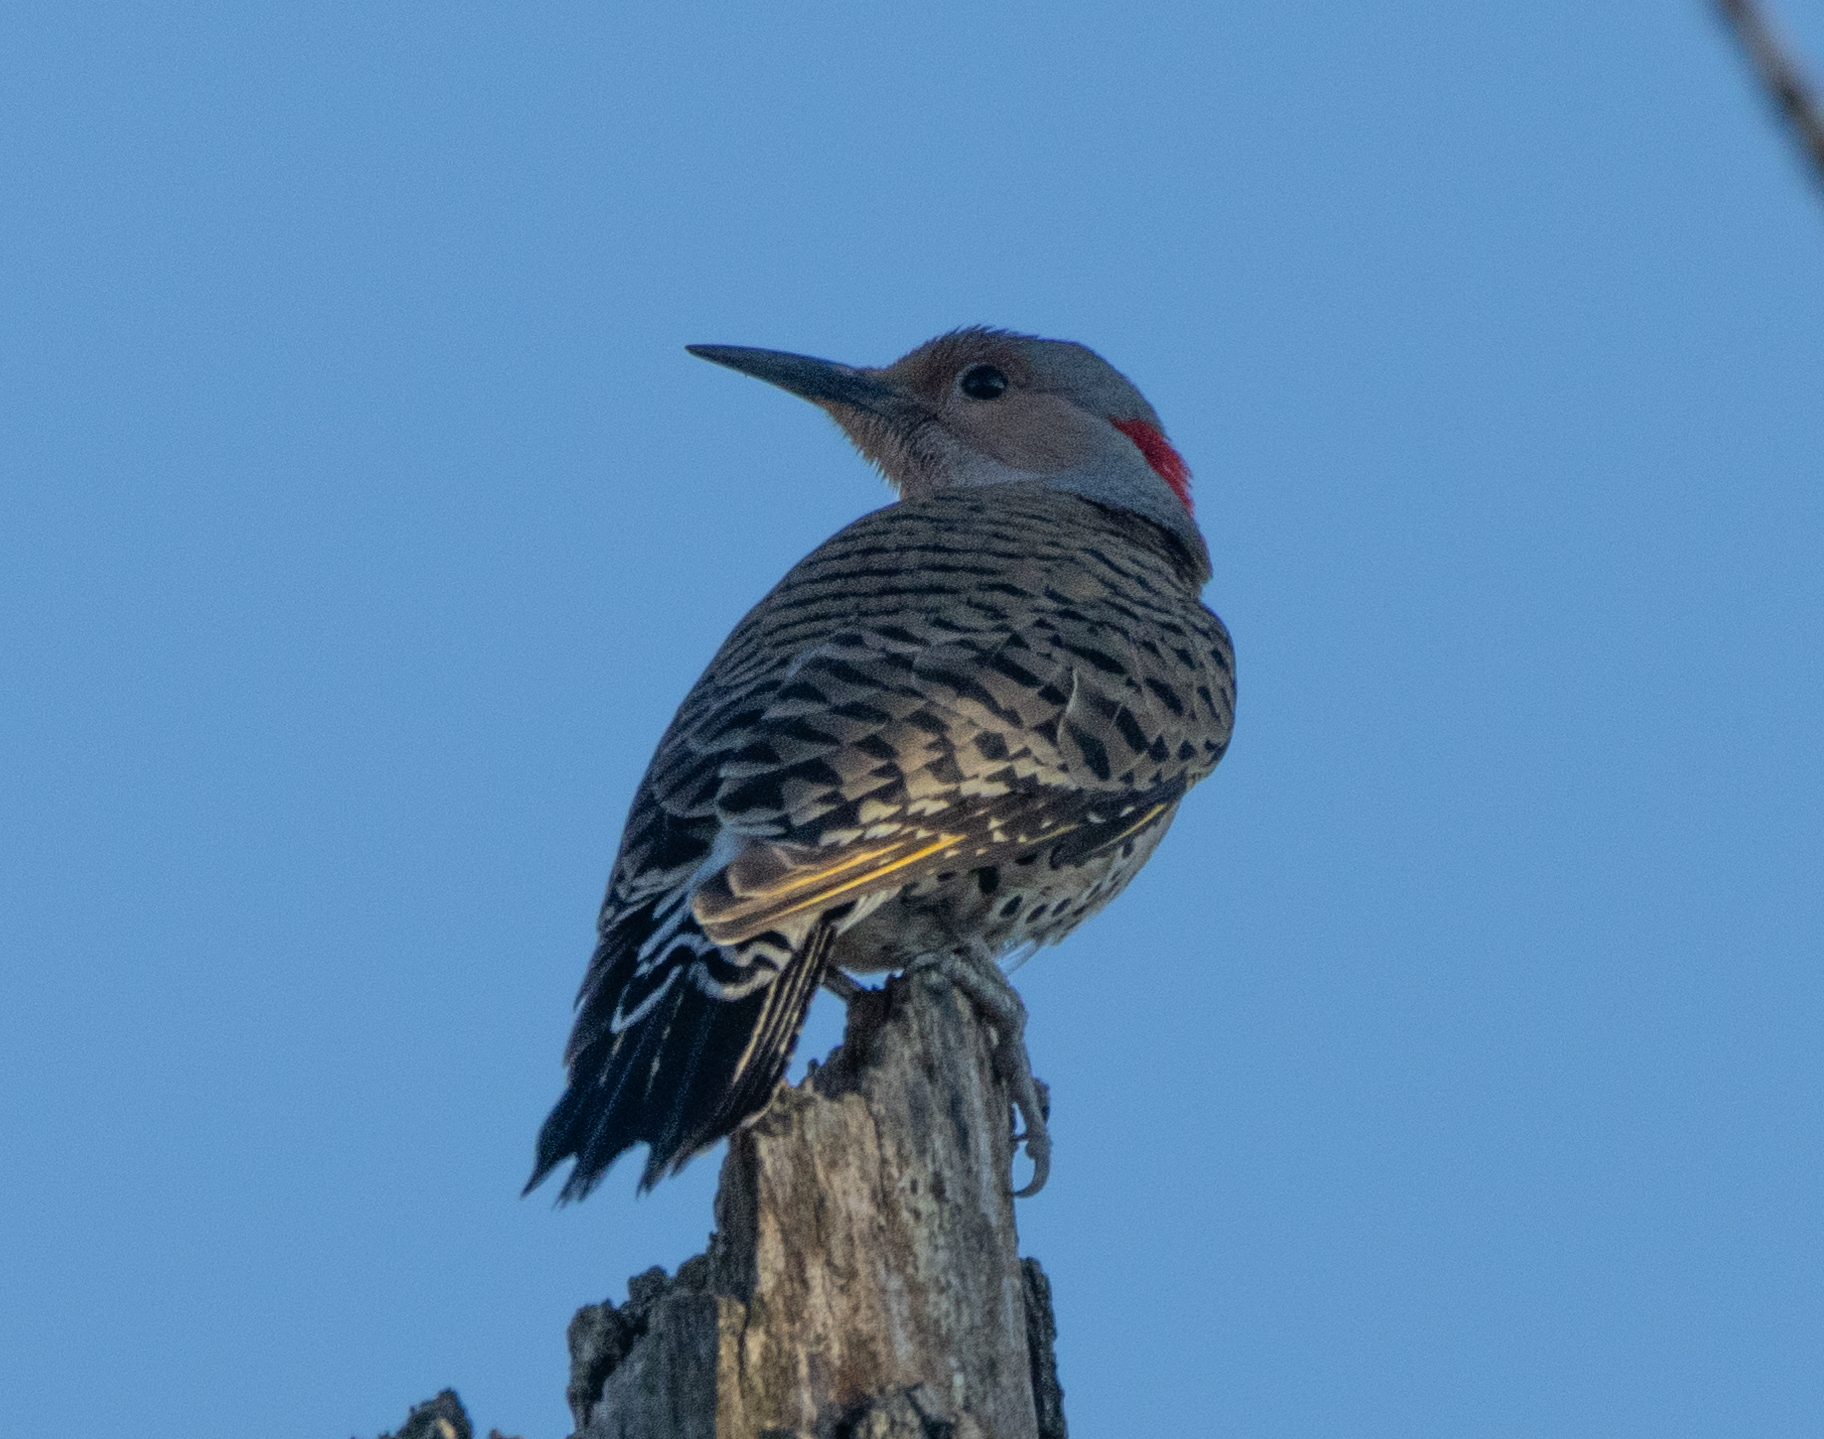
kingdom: Animalia
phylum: Chordata
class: Aves
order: Piciformes
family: Picidae
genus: Colaptes
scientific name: Colaptes auratus
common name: Northern flicker
